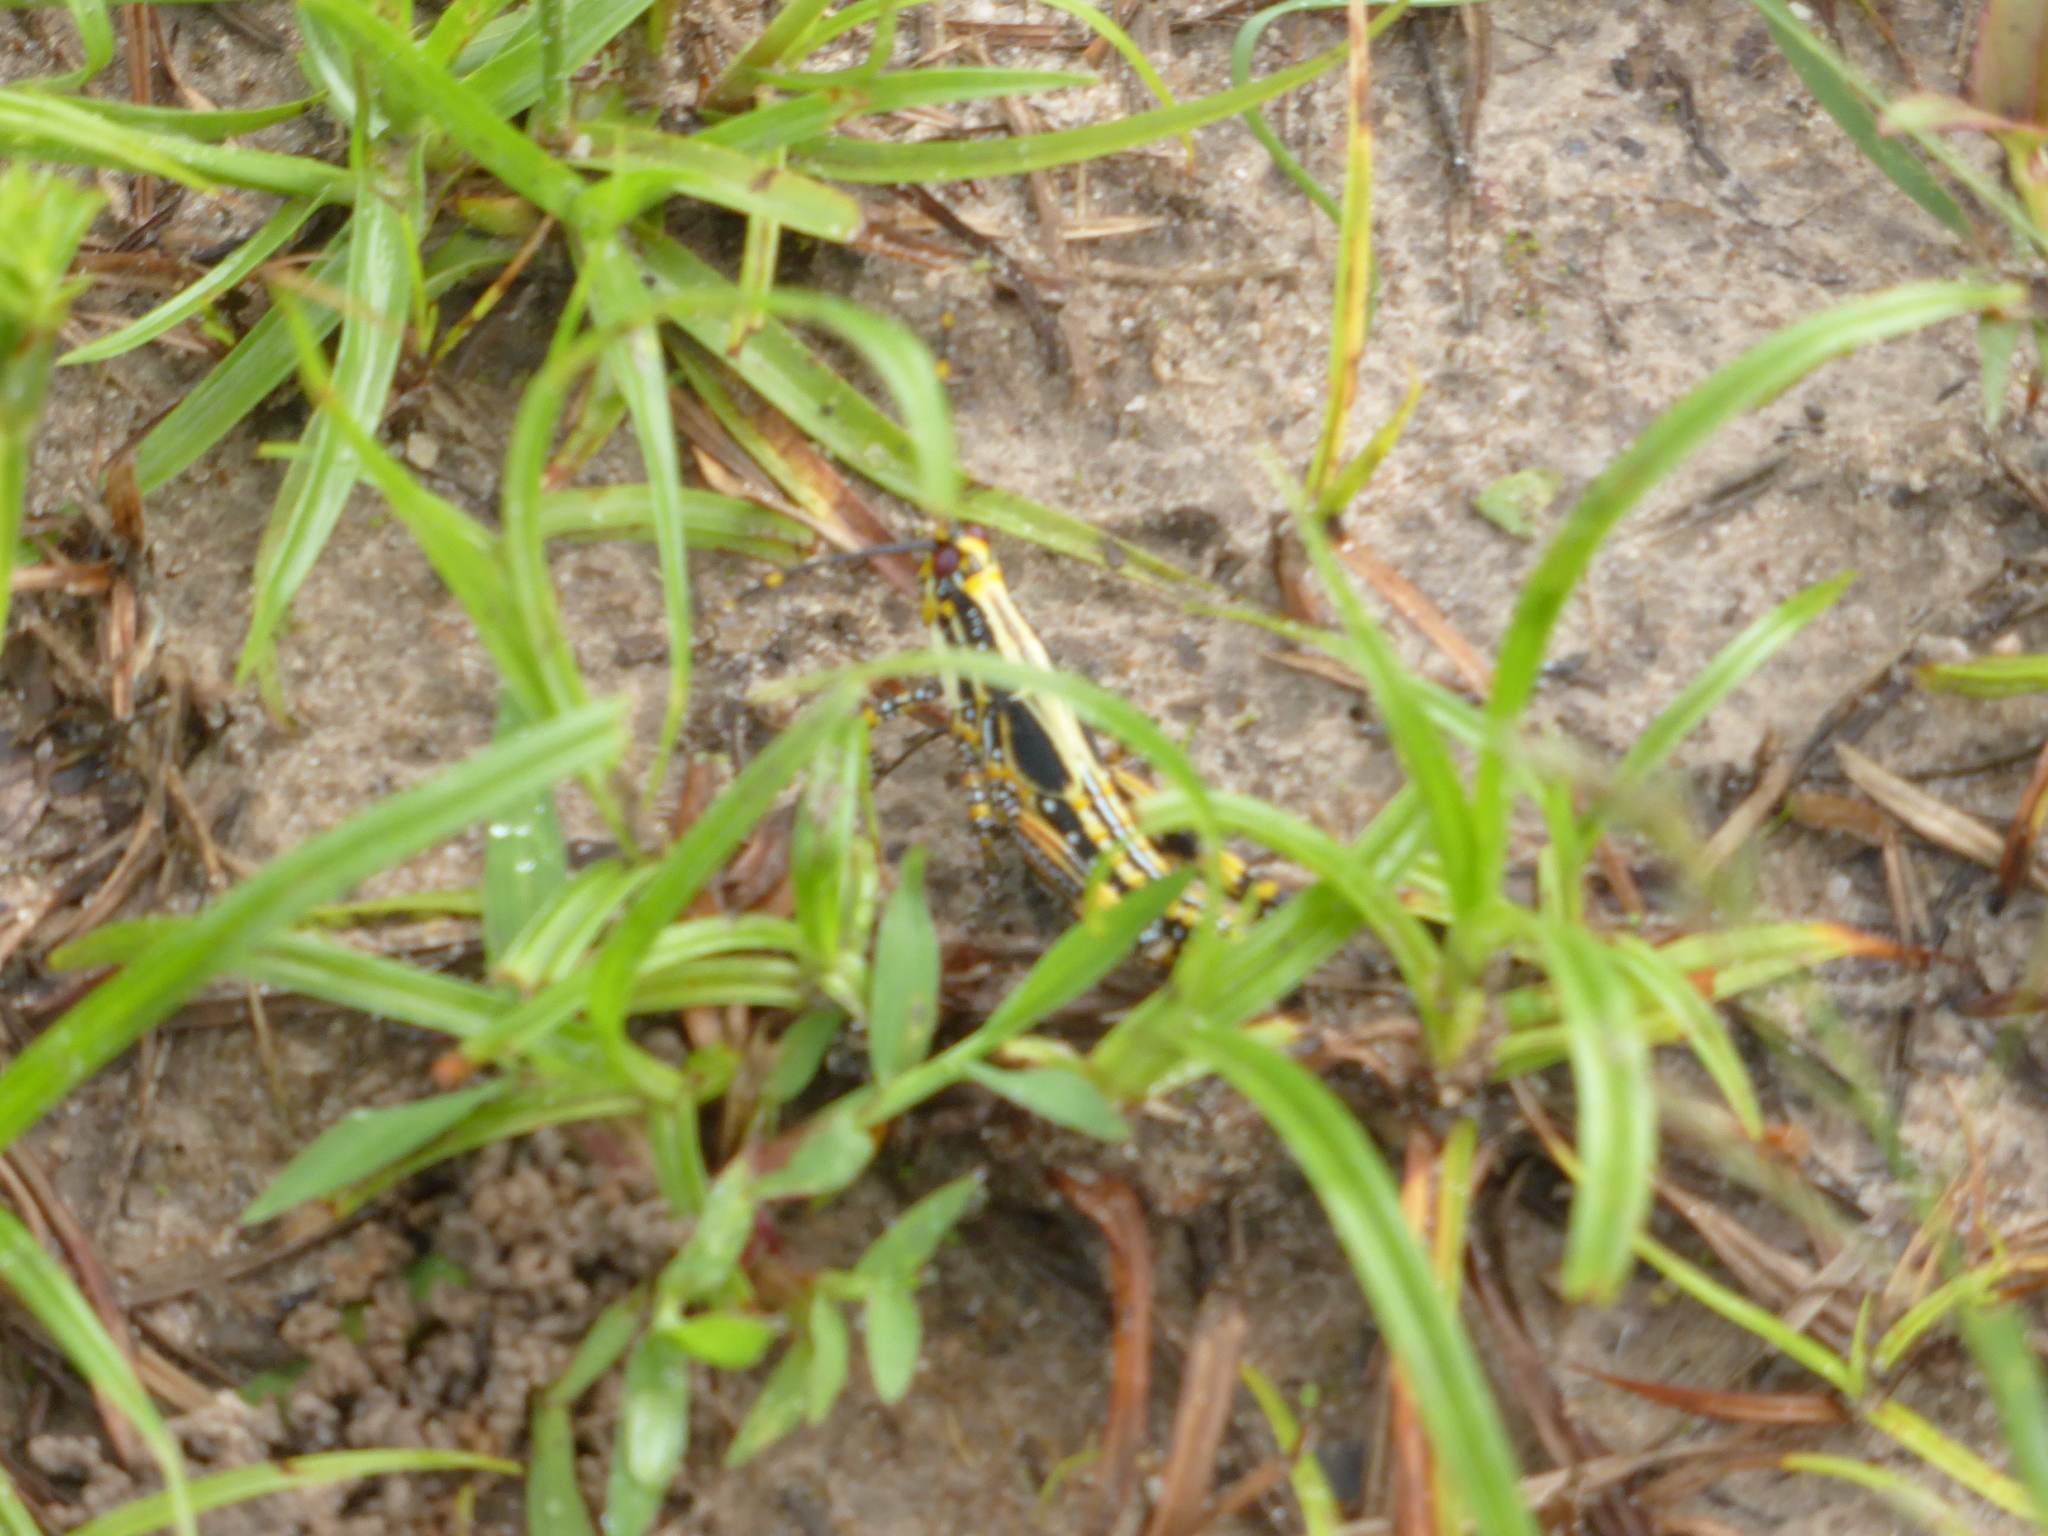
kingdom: Animalia
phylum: Arthropoda
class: Insecta
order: Orthoptera
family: Pyrgomorphidae
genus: Zonocerus
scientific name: Zonocerus variegatus
